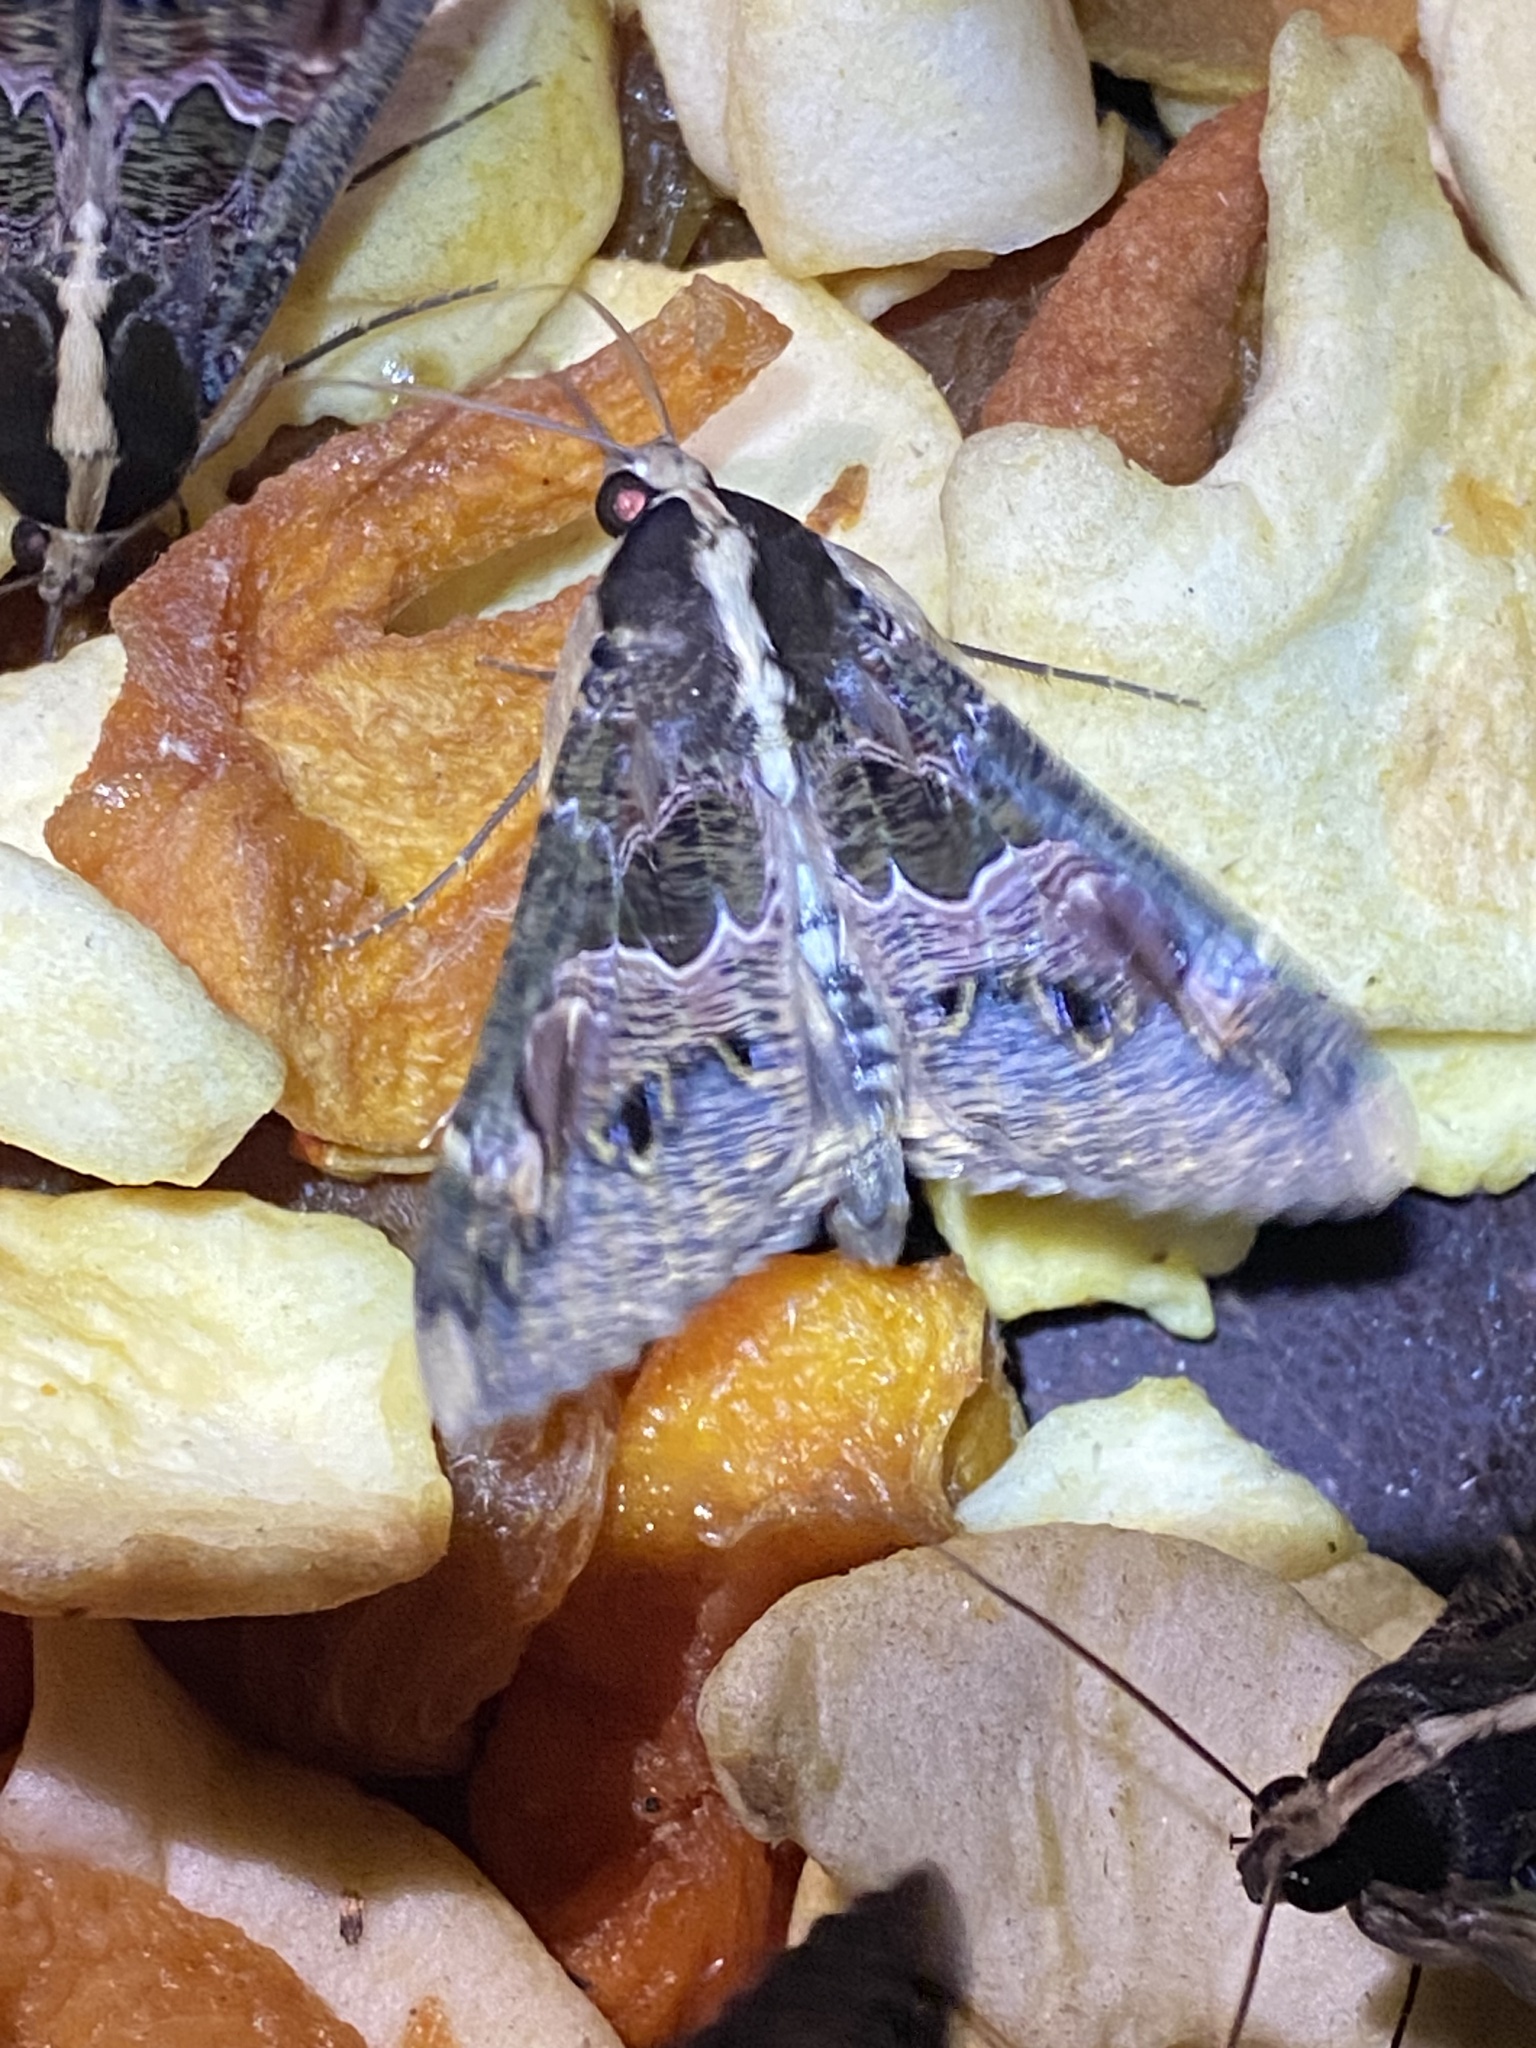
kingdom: Animalia
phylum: Arthropoda
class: Insecta
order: Lepidoptera
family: Erebidae
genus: Sphingomorpha
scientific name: Sphingomorpha chlorea
